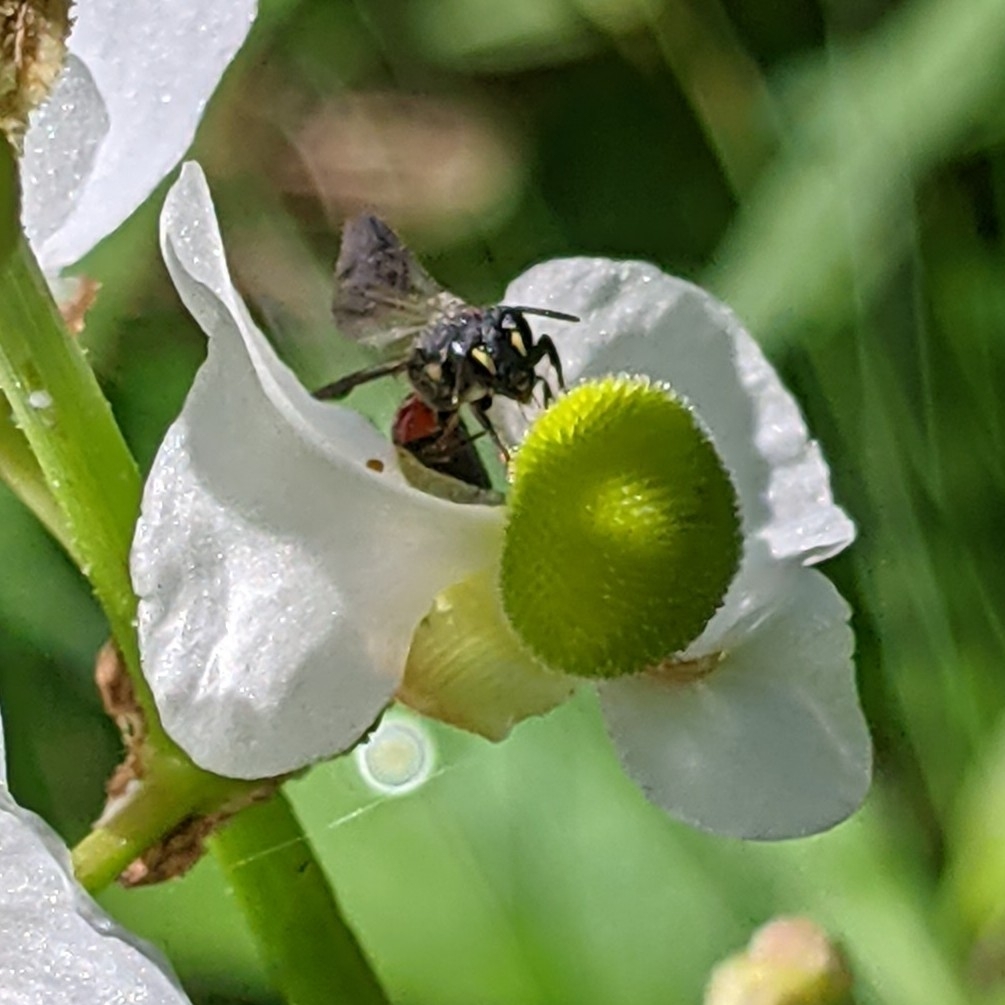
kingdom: Animalia
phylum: Arthropoda
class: Insecta
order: Hymenoptera
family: Colletidae
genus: Hylaeus
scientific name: Hylaeus nelumbonis
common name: Nelumbo masked bee
